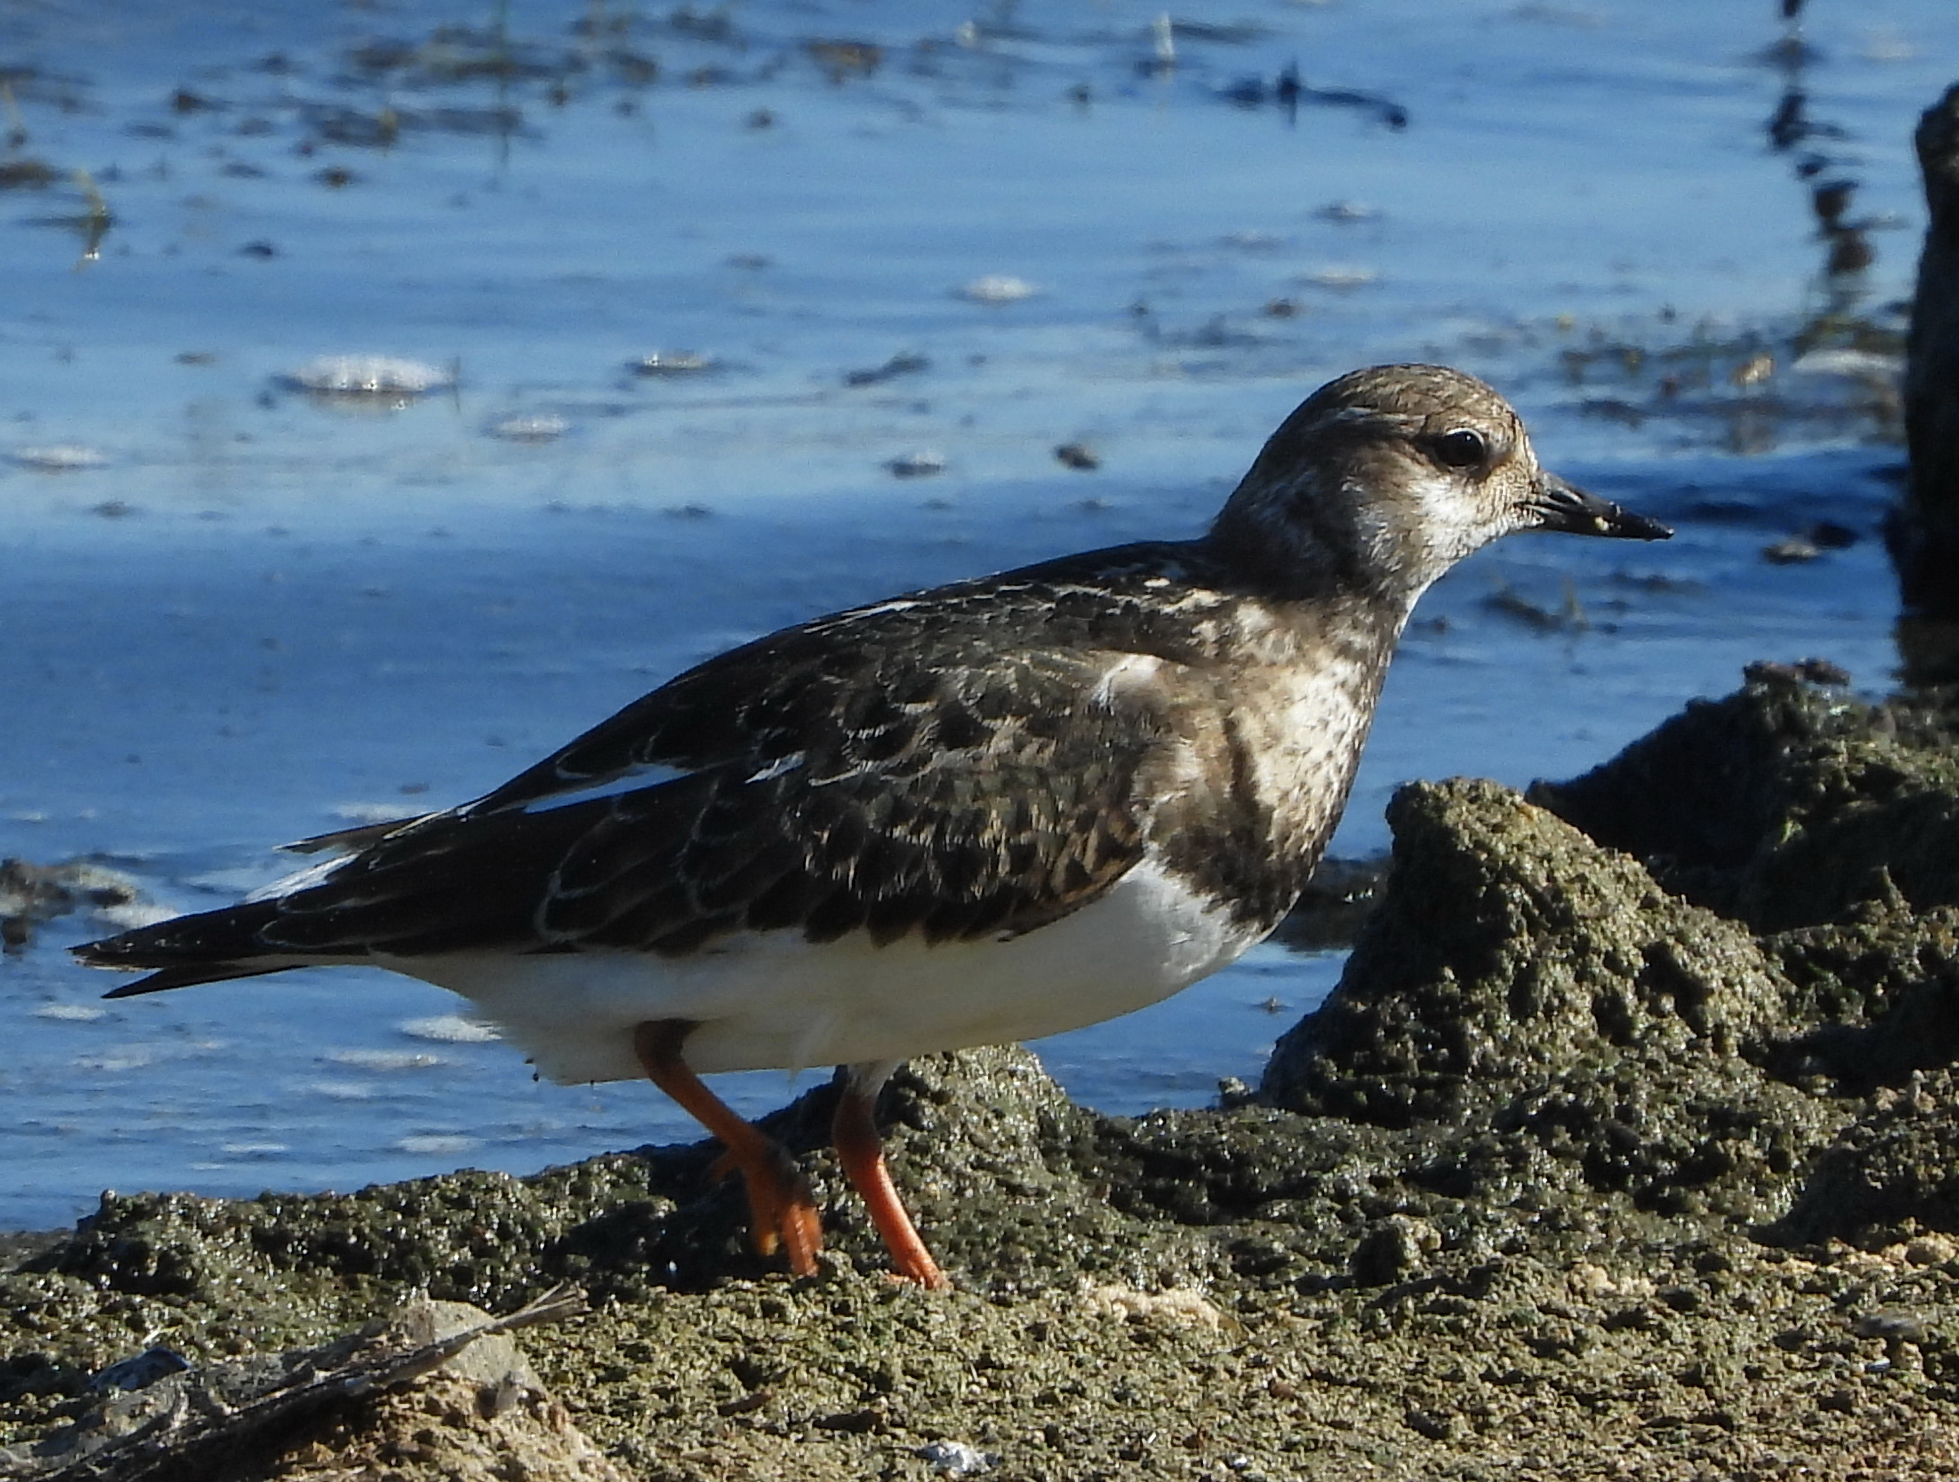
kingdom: Animalia
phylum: Chordata
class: Aves
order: Charadriiformes
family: Scolopacidae
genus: Arenaria
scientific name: Arenaria interpres
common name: Ruddy turnstone
